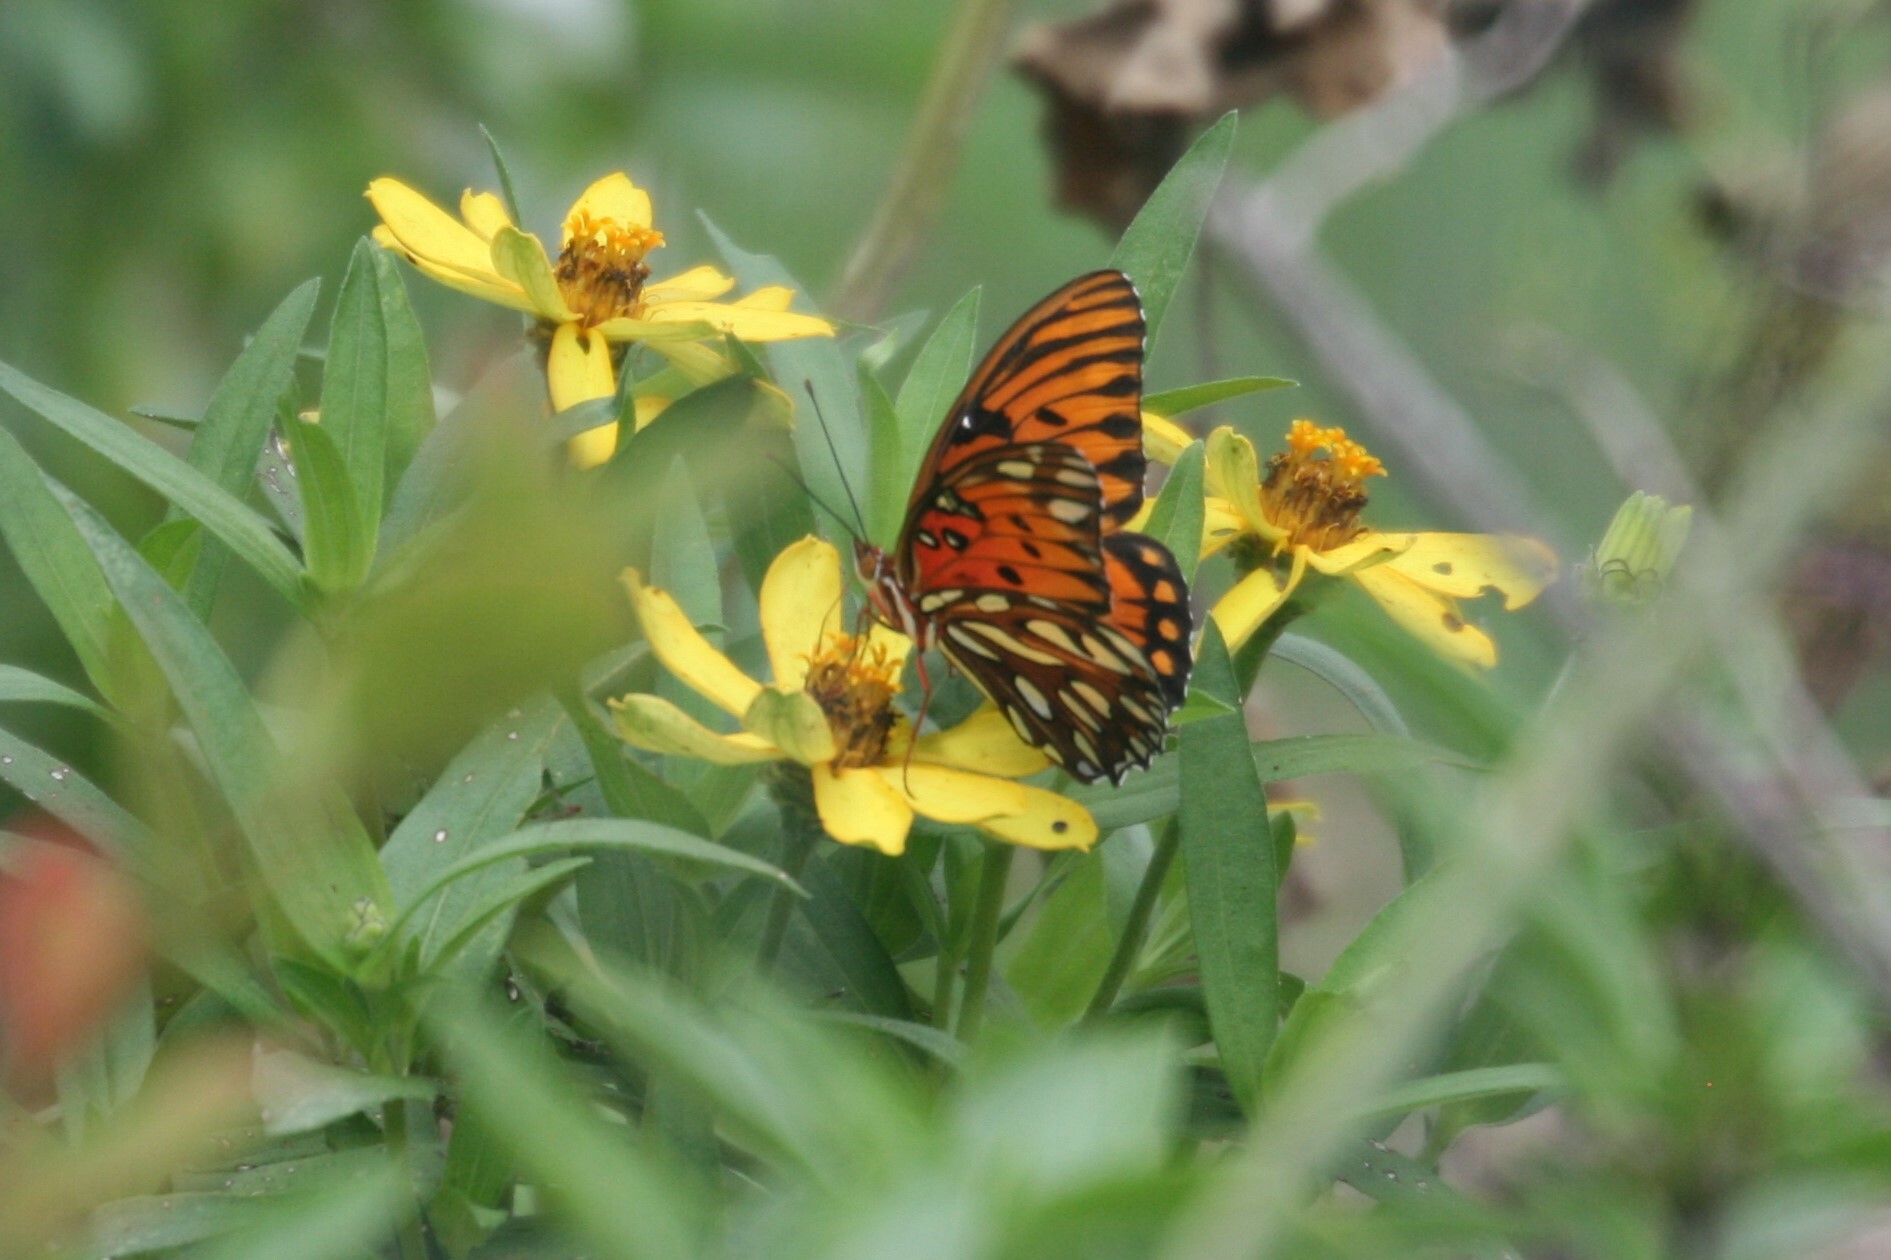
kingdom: Animalia
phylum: Arthropoda
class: Insecta
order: Lepidoptera
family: Nymphalidae
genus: Dione
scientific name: Dione vanillae
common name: Gulf fritillary
